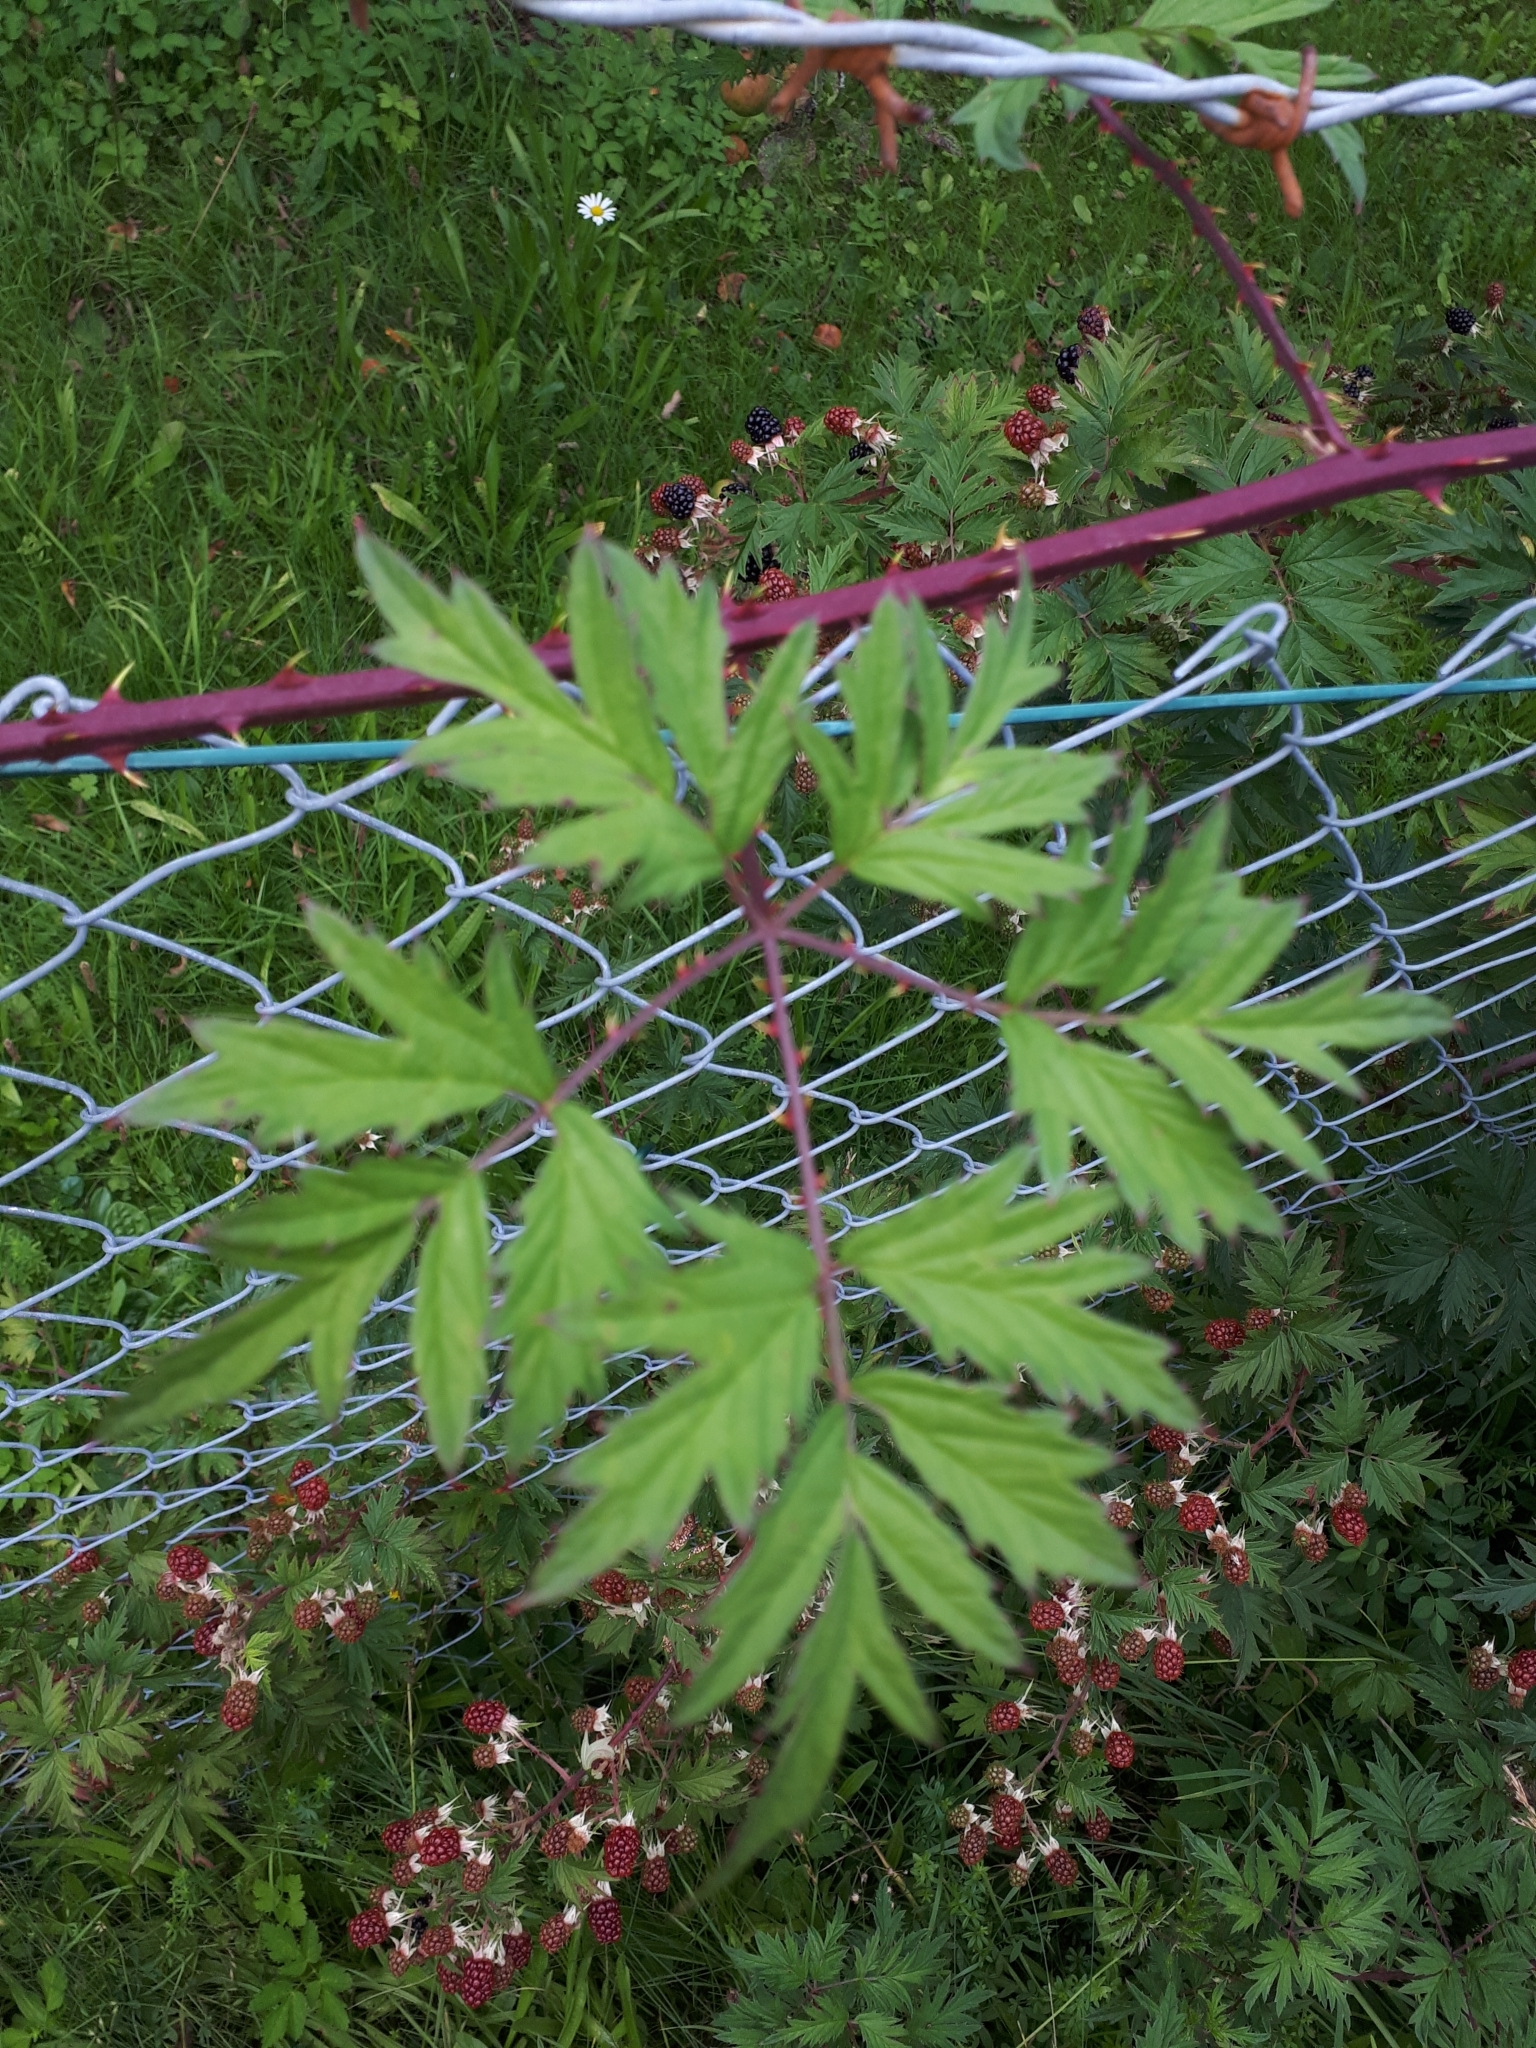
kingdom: Plantae
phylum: Tracheophyta
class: Magnoliopsida
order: Rosales
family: Rosaceae
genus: Rubus
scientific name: Rubus laciniatus
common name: Evergreen blackberry
